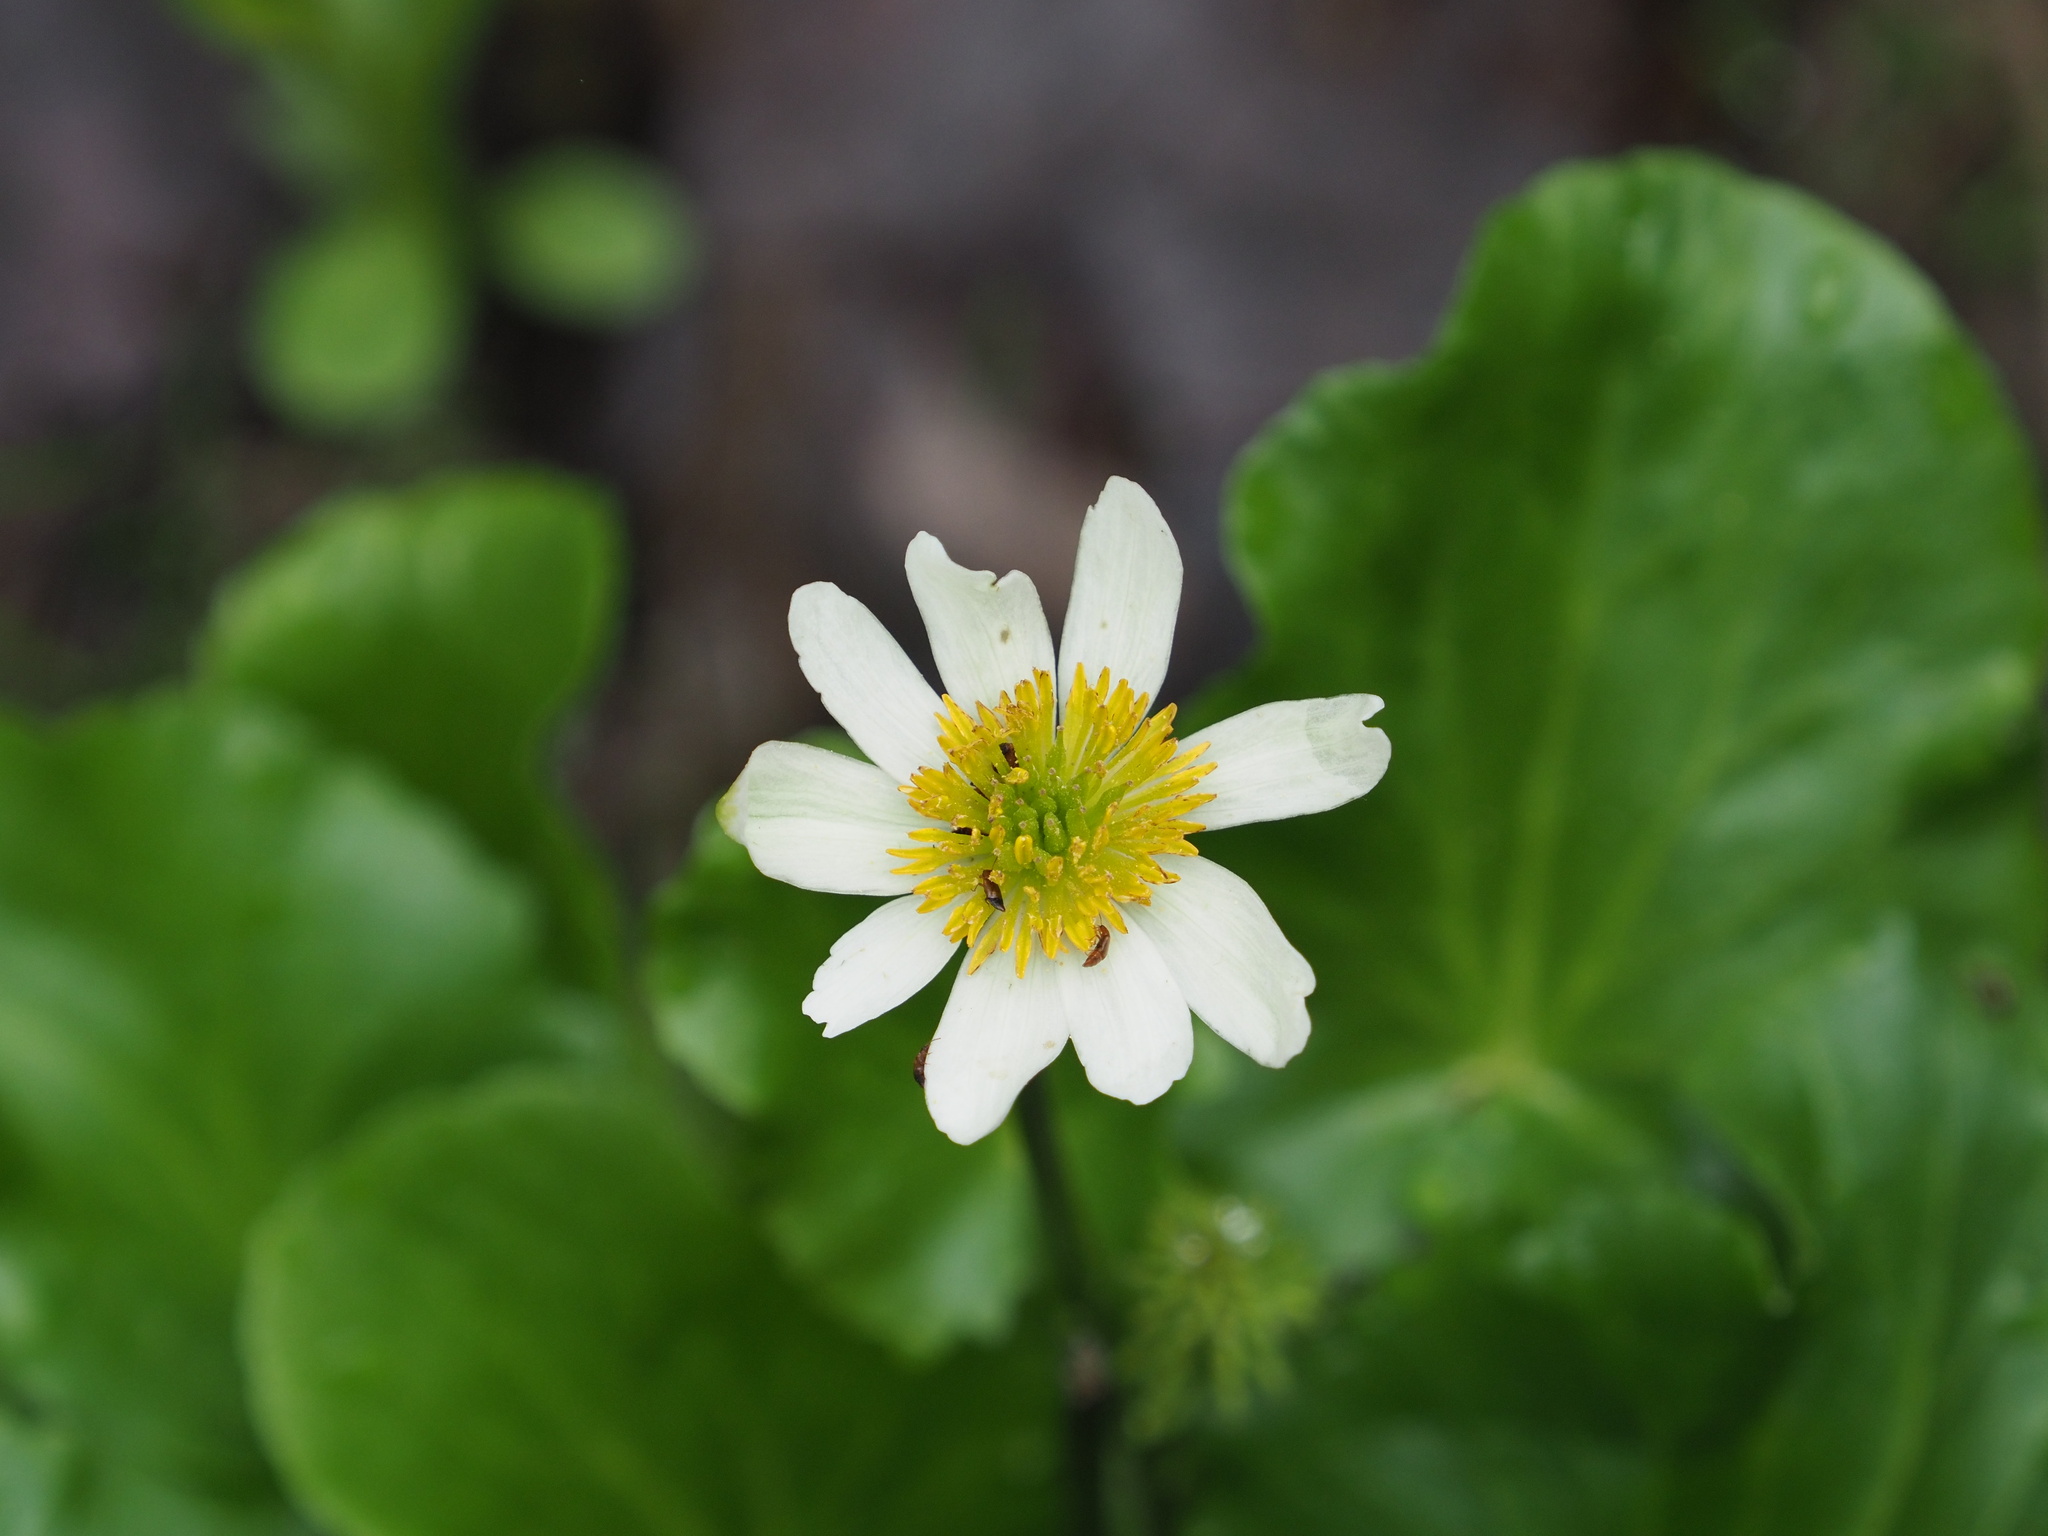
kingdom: Plantae
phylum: Tracheophyta
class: Magnoliopsida
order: Ranunculales
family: Ranunculaceae
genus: Caltha
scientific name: Caltha leptosepala
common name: Elkslip
